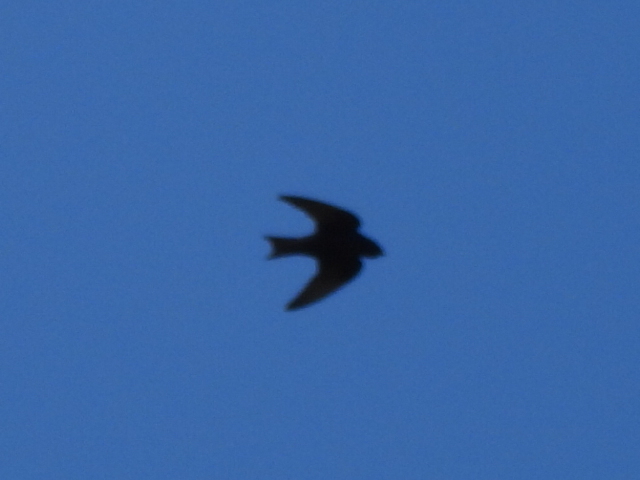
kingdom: Animalia
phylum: Chordata
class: Aves
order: Passeriformes
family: Hirundinidae
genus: Progne
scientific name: Progne subis
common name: Purple martin
